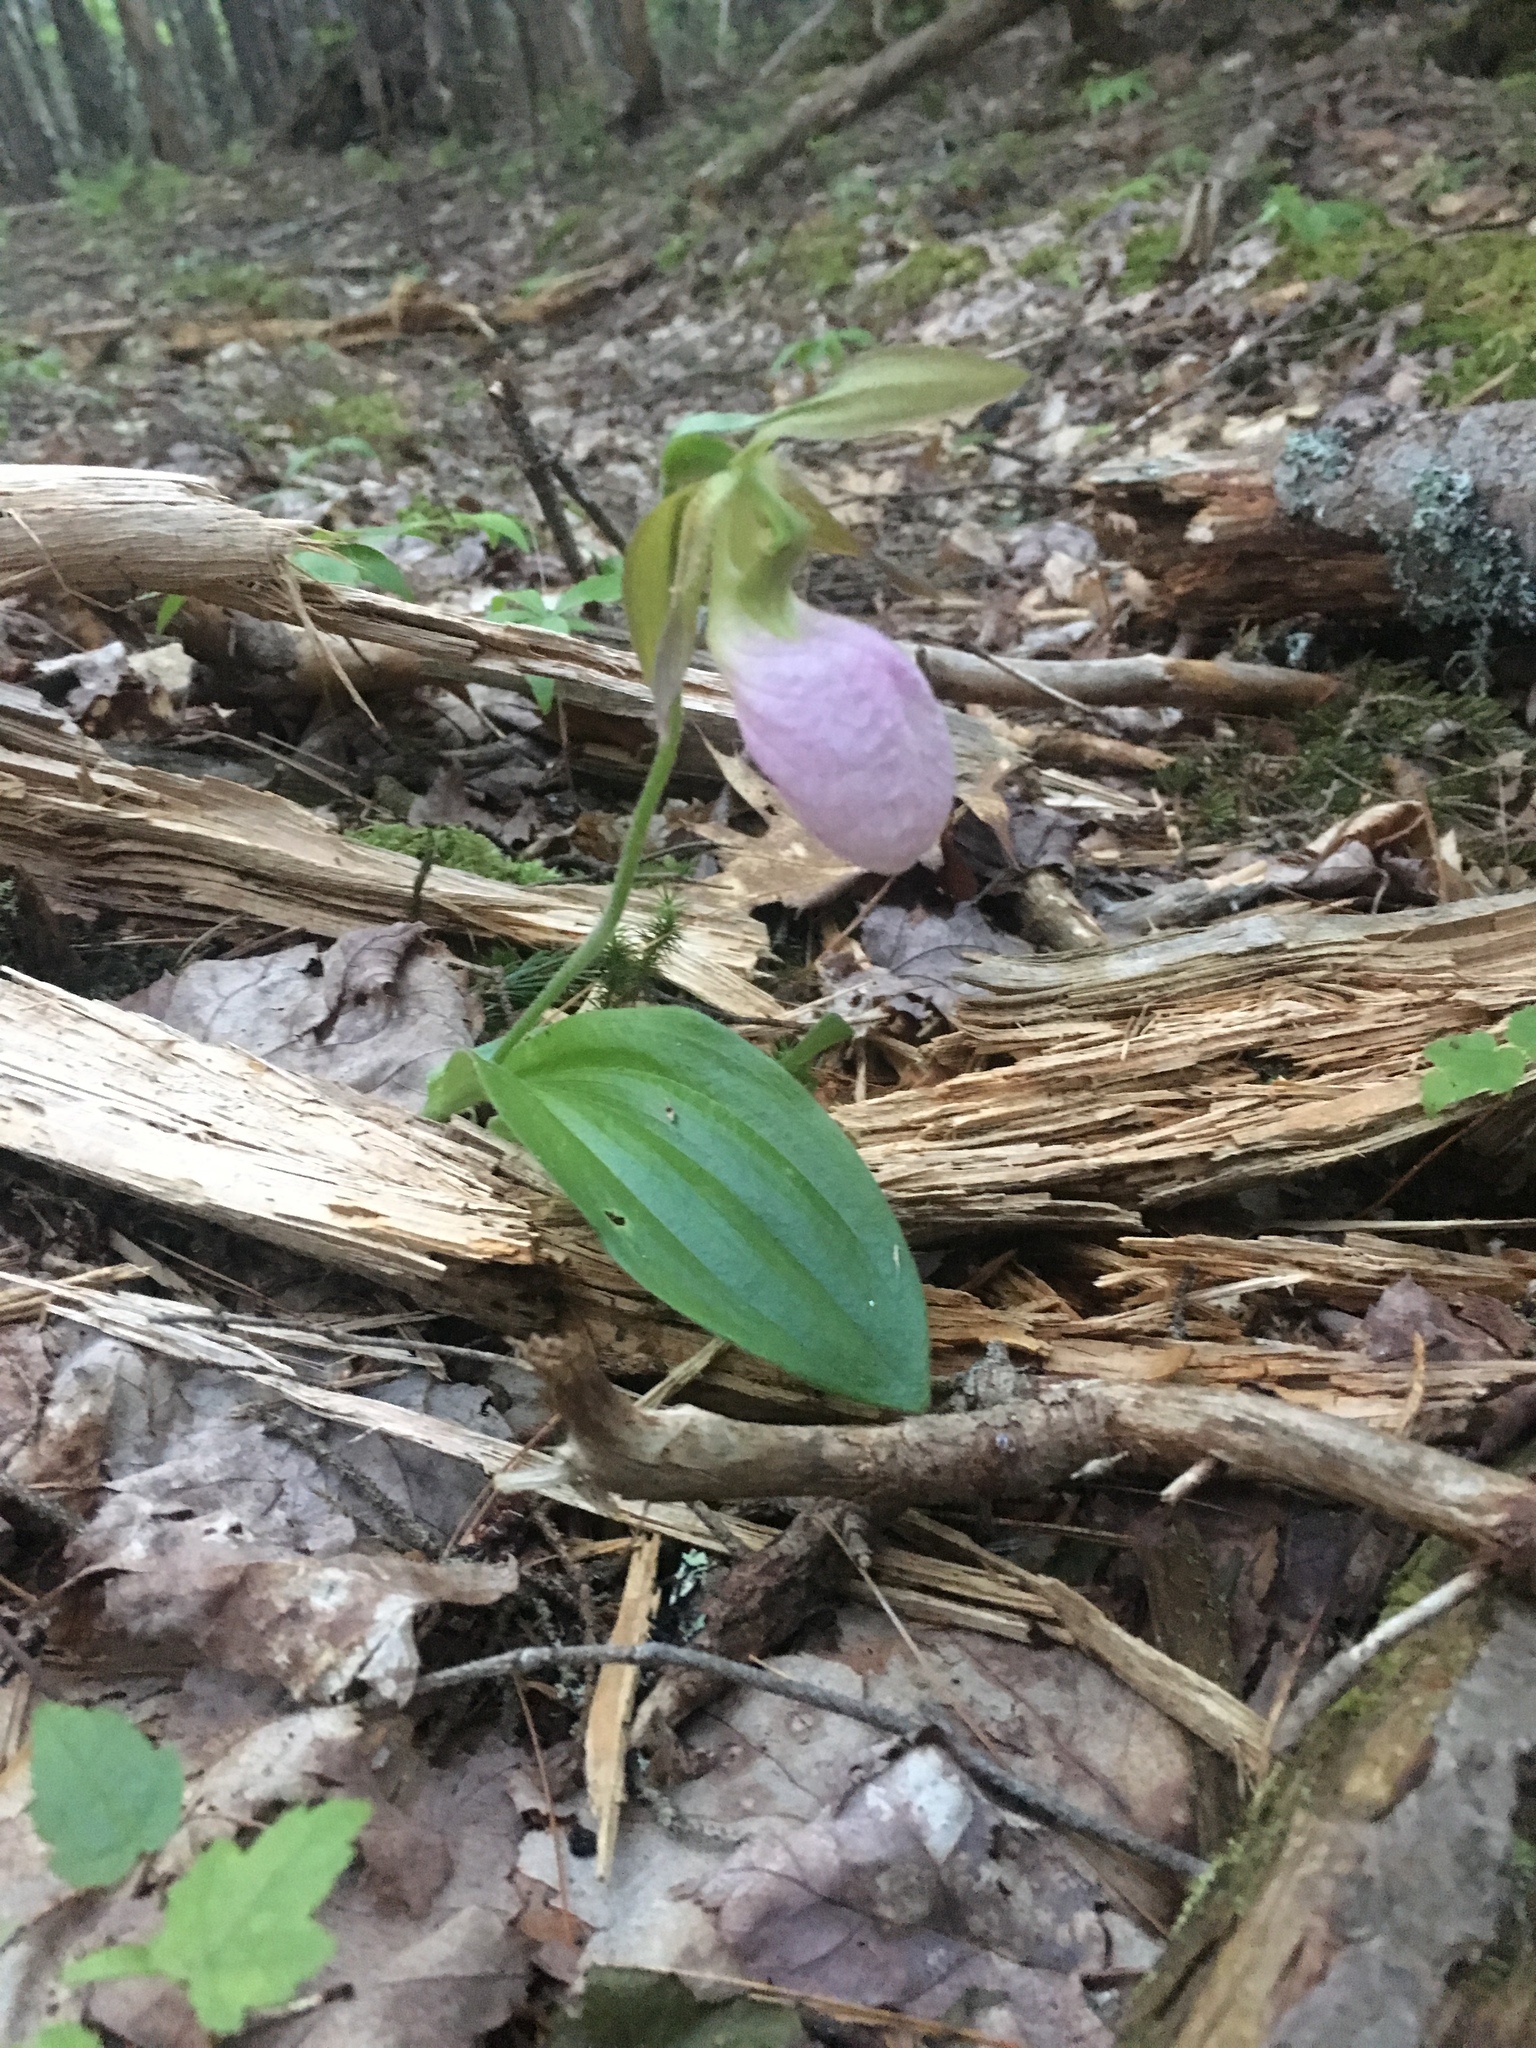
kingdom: Plantae
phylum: Tracheophyta
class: Liliopsida
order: Asparagales
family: Orchidaceae
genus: Cypripedium
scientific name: Cypripedium acaule
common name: Pink lady's-slipper
